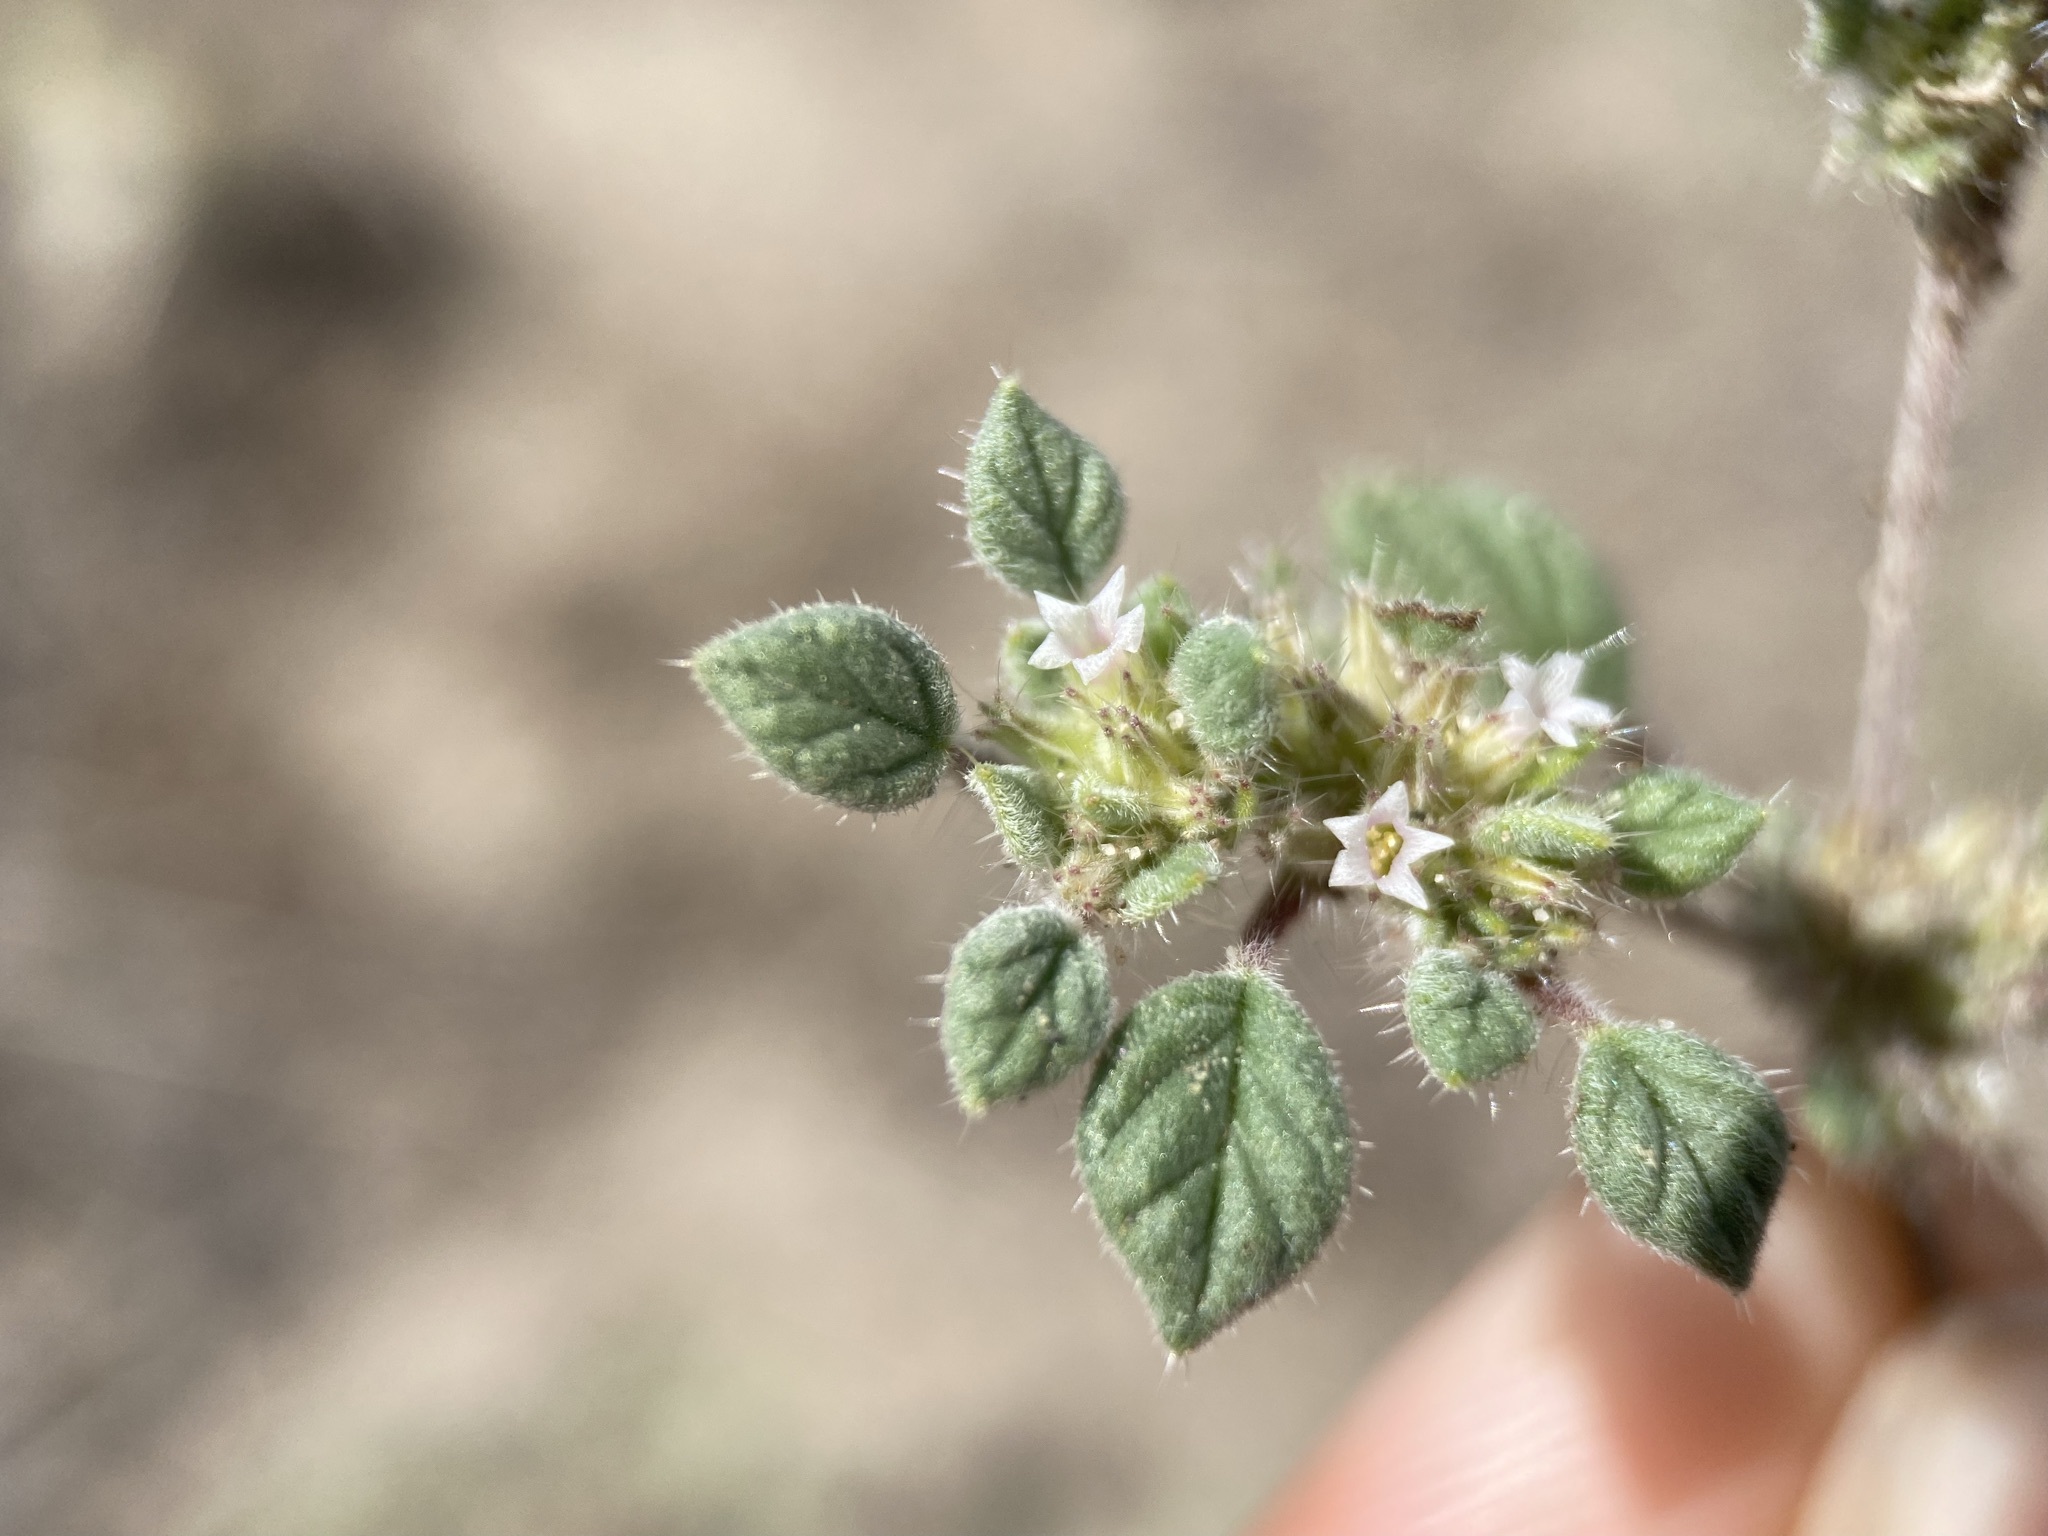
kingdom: Plantae
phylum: Tracheophyta
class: Magnoliopsida
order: Boraginales
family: Ehretiaceae
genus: Tiquilia
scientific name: Tiquilia nuttallii
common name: Rosette tiquilia
